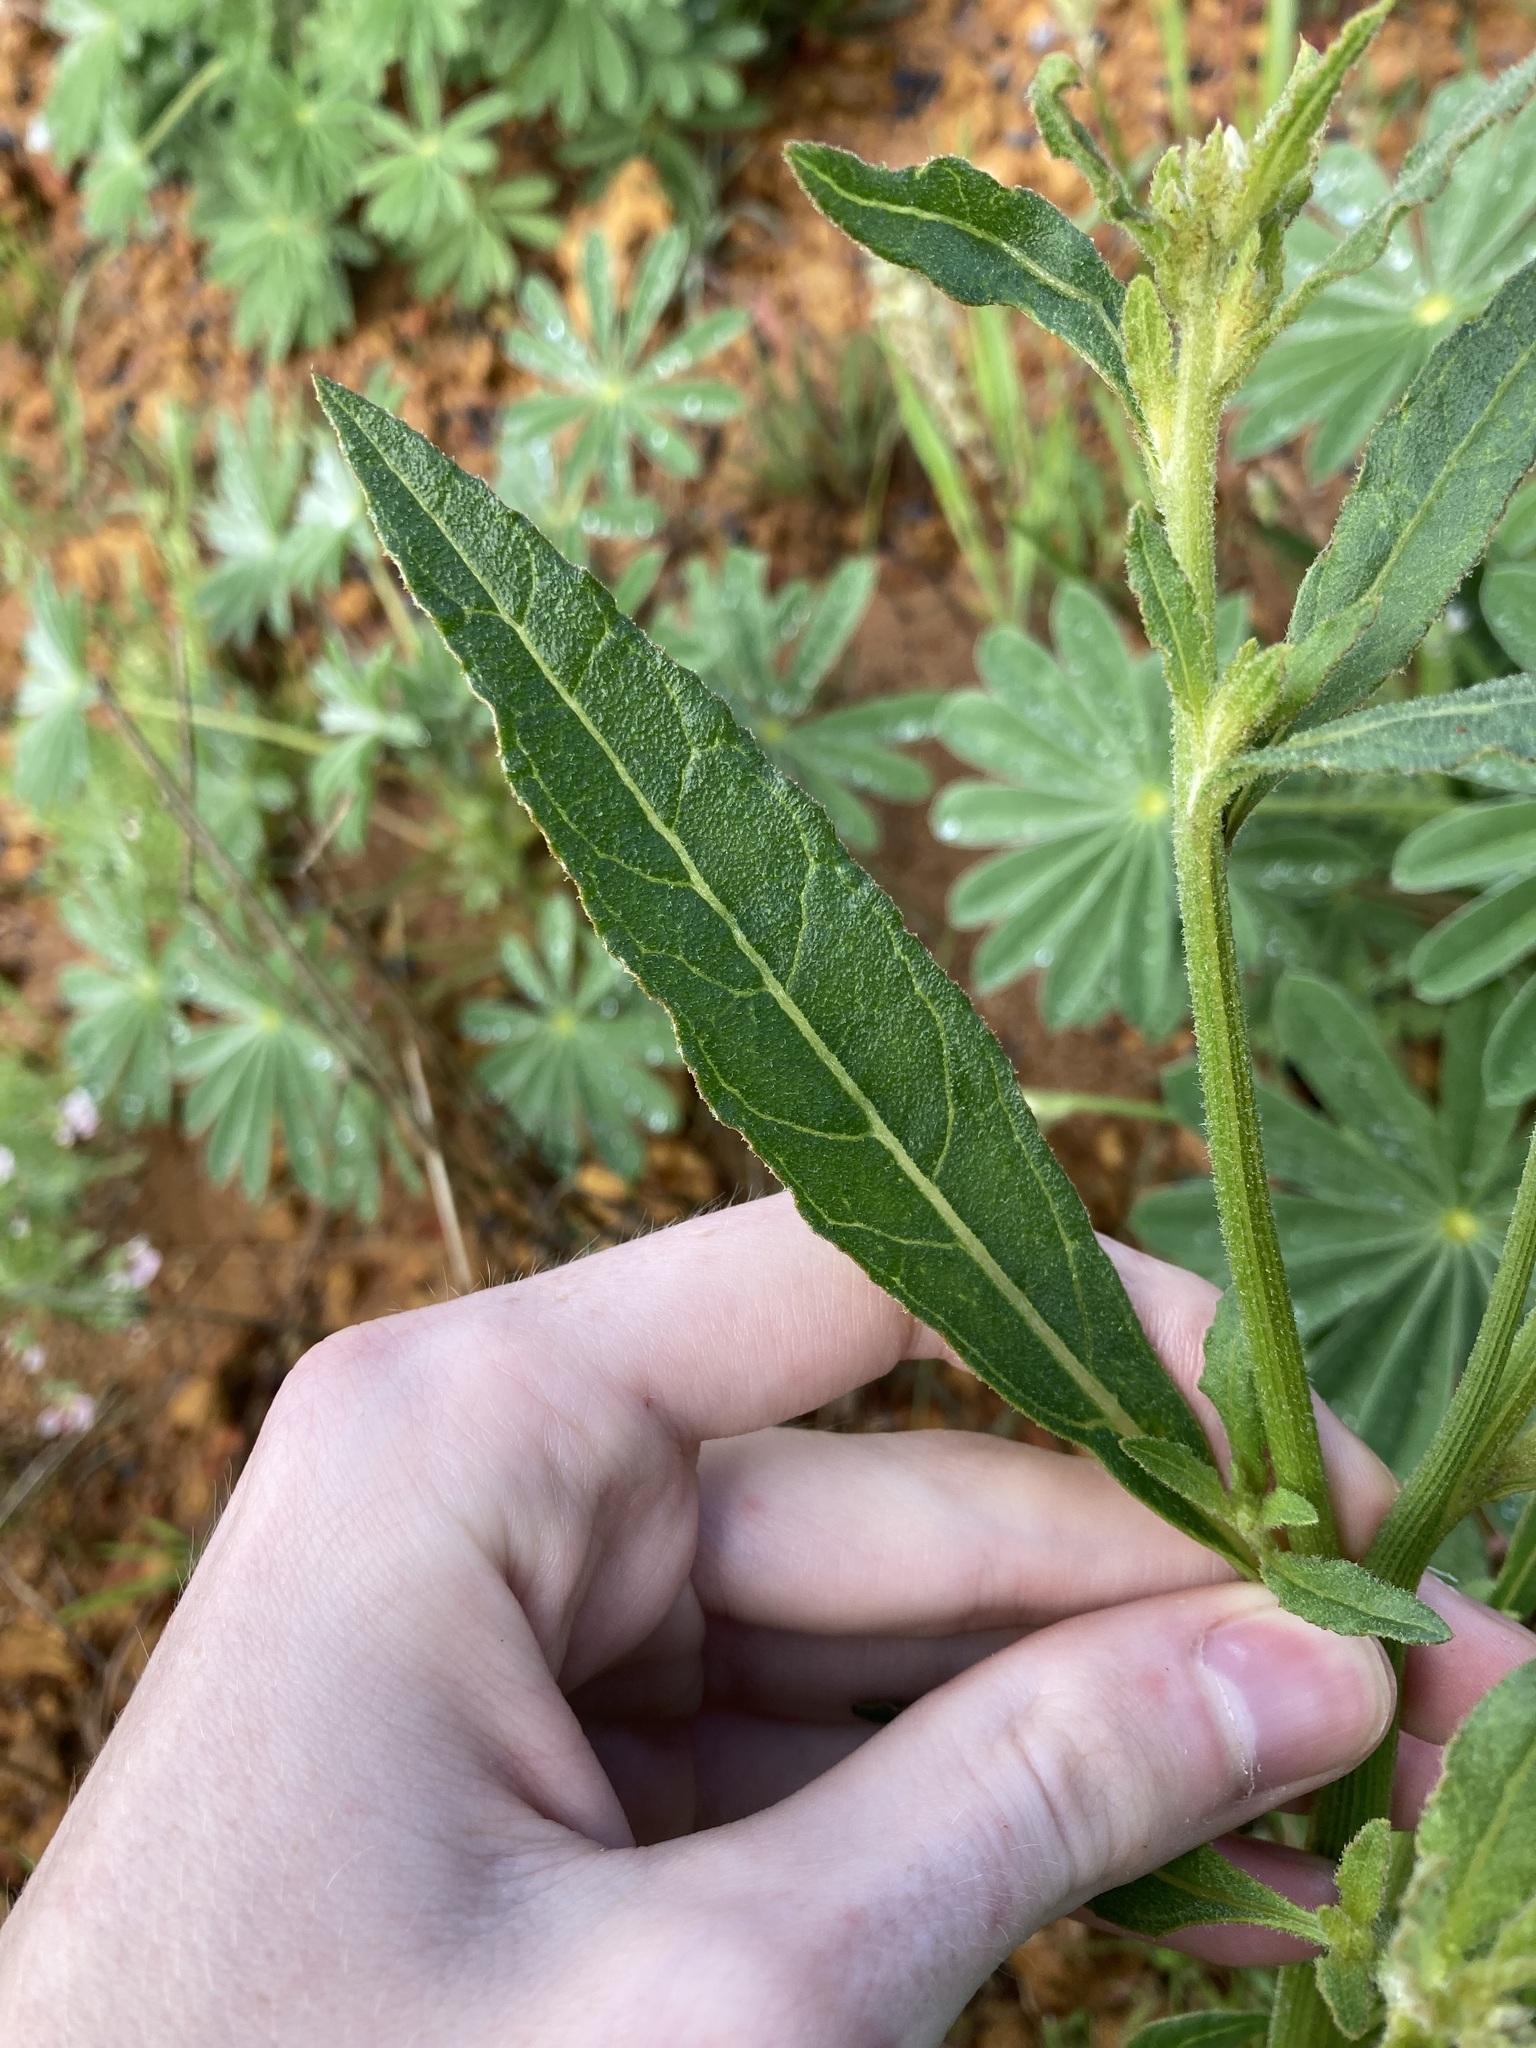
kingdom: Plantae
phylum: Tracheophyta
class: Magnoliopsida
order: Caryophyllales
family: Amaranthaceae
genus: Ptilotus
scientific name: Ptilotus polystachyus
